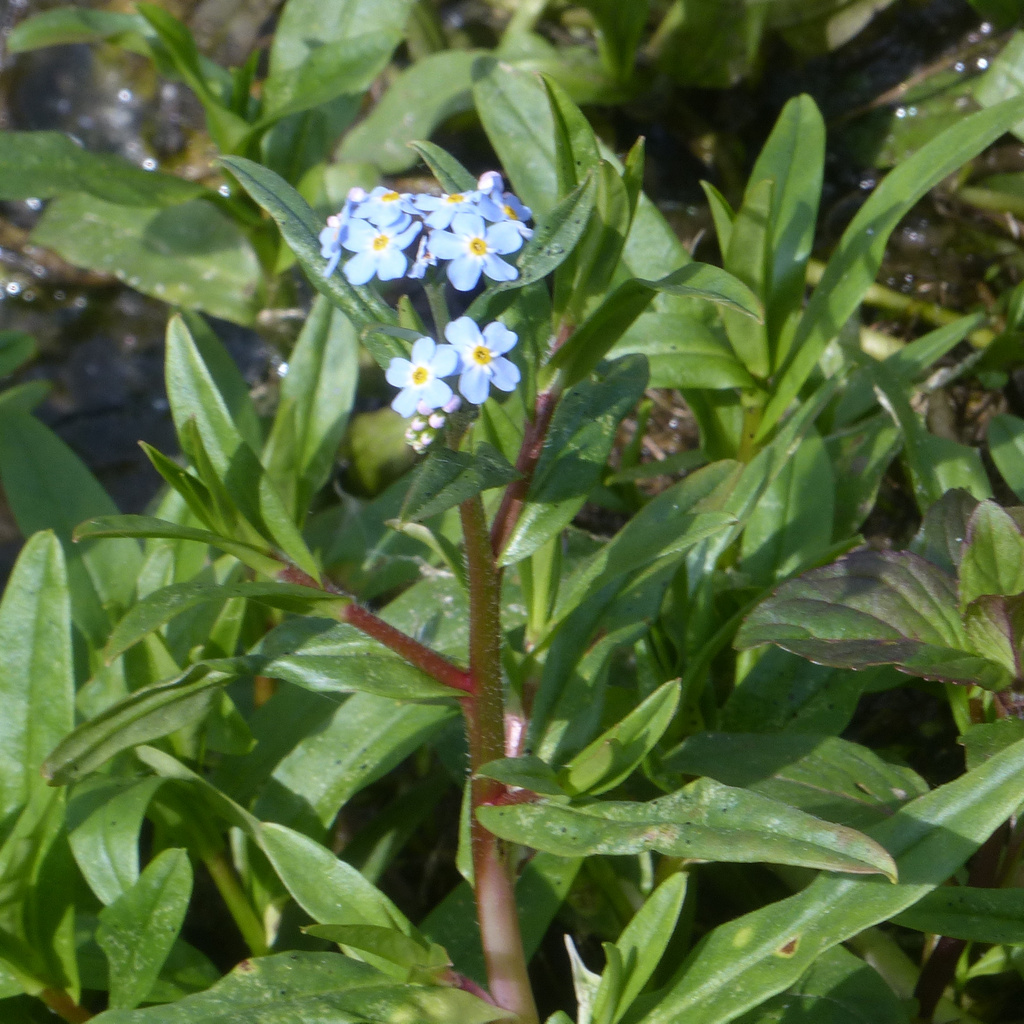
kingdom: Plantae
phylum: Tracheophyta
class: Magnoliopsida
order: Boraginales
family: Boraginaceae
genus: Myosotis
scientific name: Myosotis scorpioides
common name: Water forget-me-not
